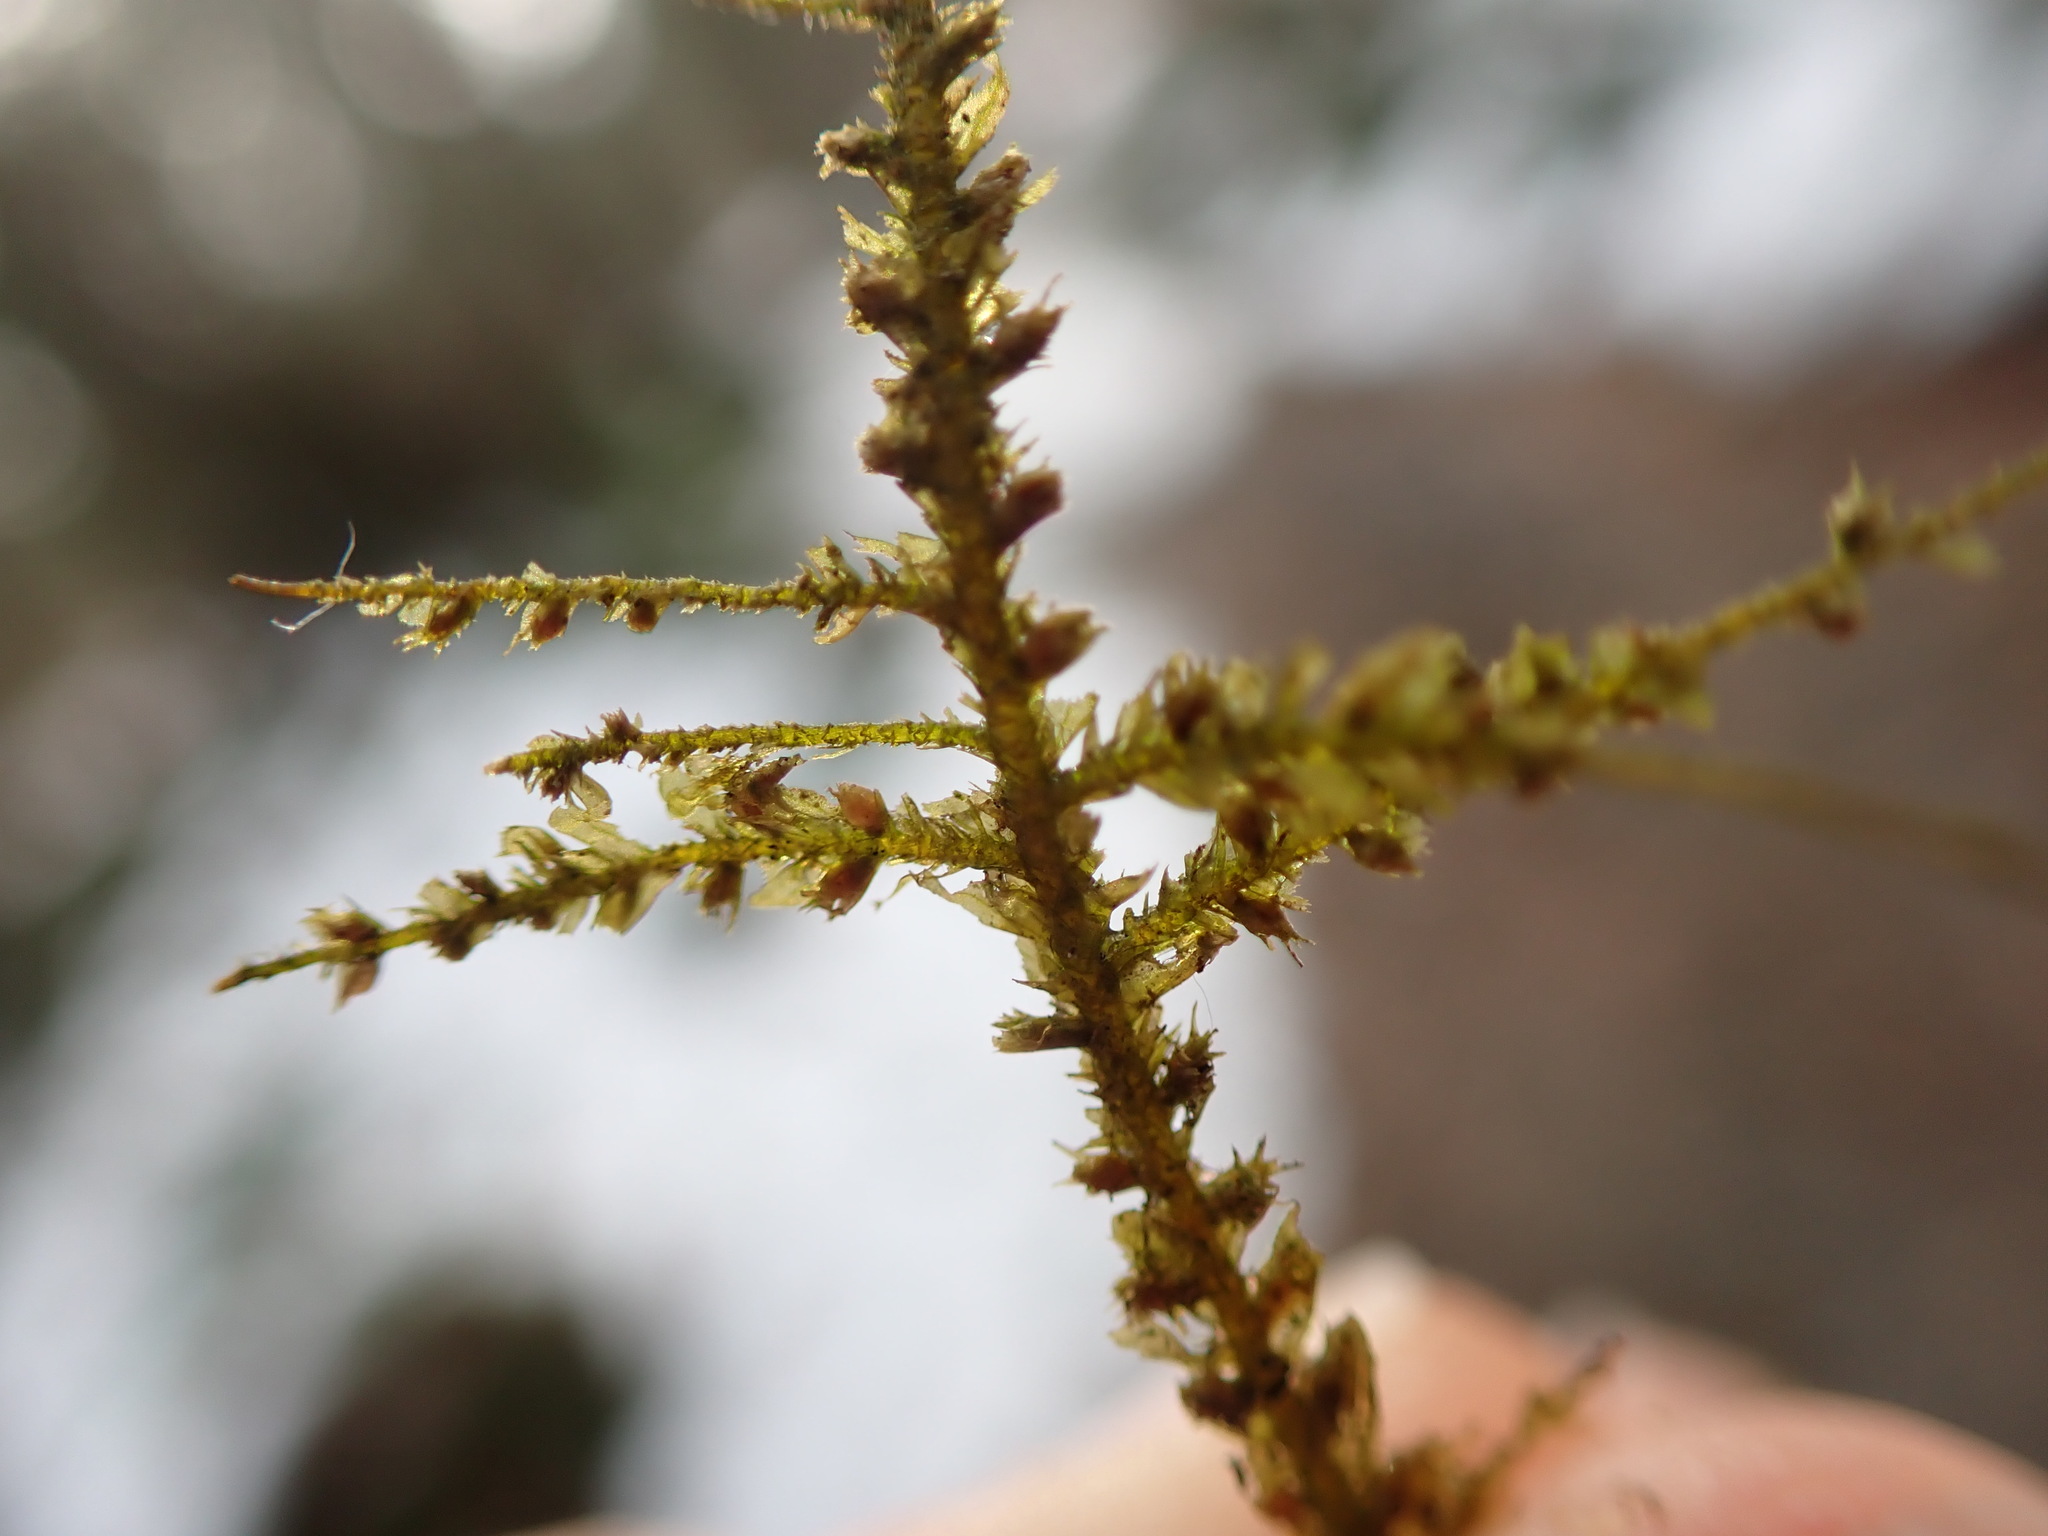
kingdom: Plantae
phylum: Bryophyta
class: Bryopsida
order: Hypnales
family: Neckeraceae
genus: Metaneckera
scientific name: Metaneckera menziesii
